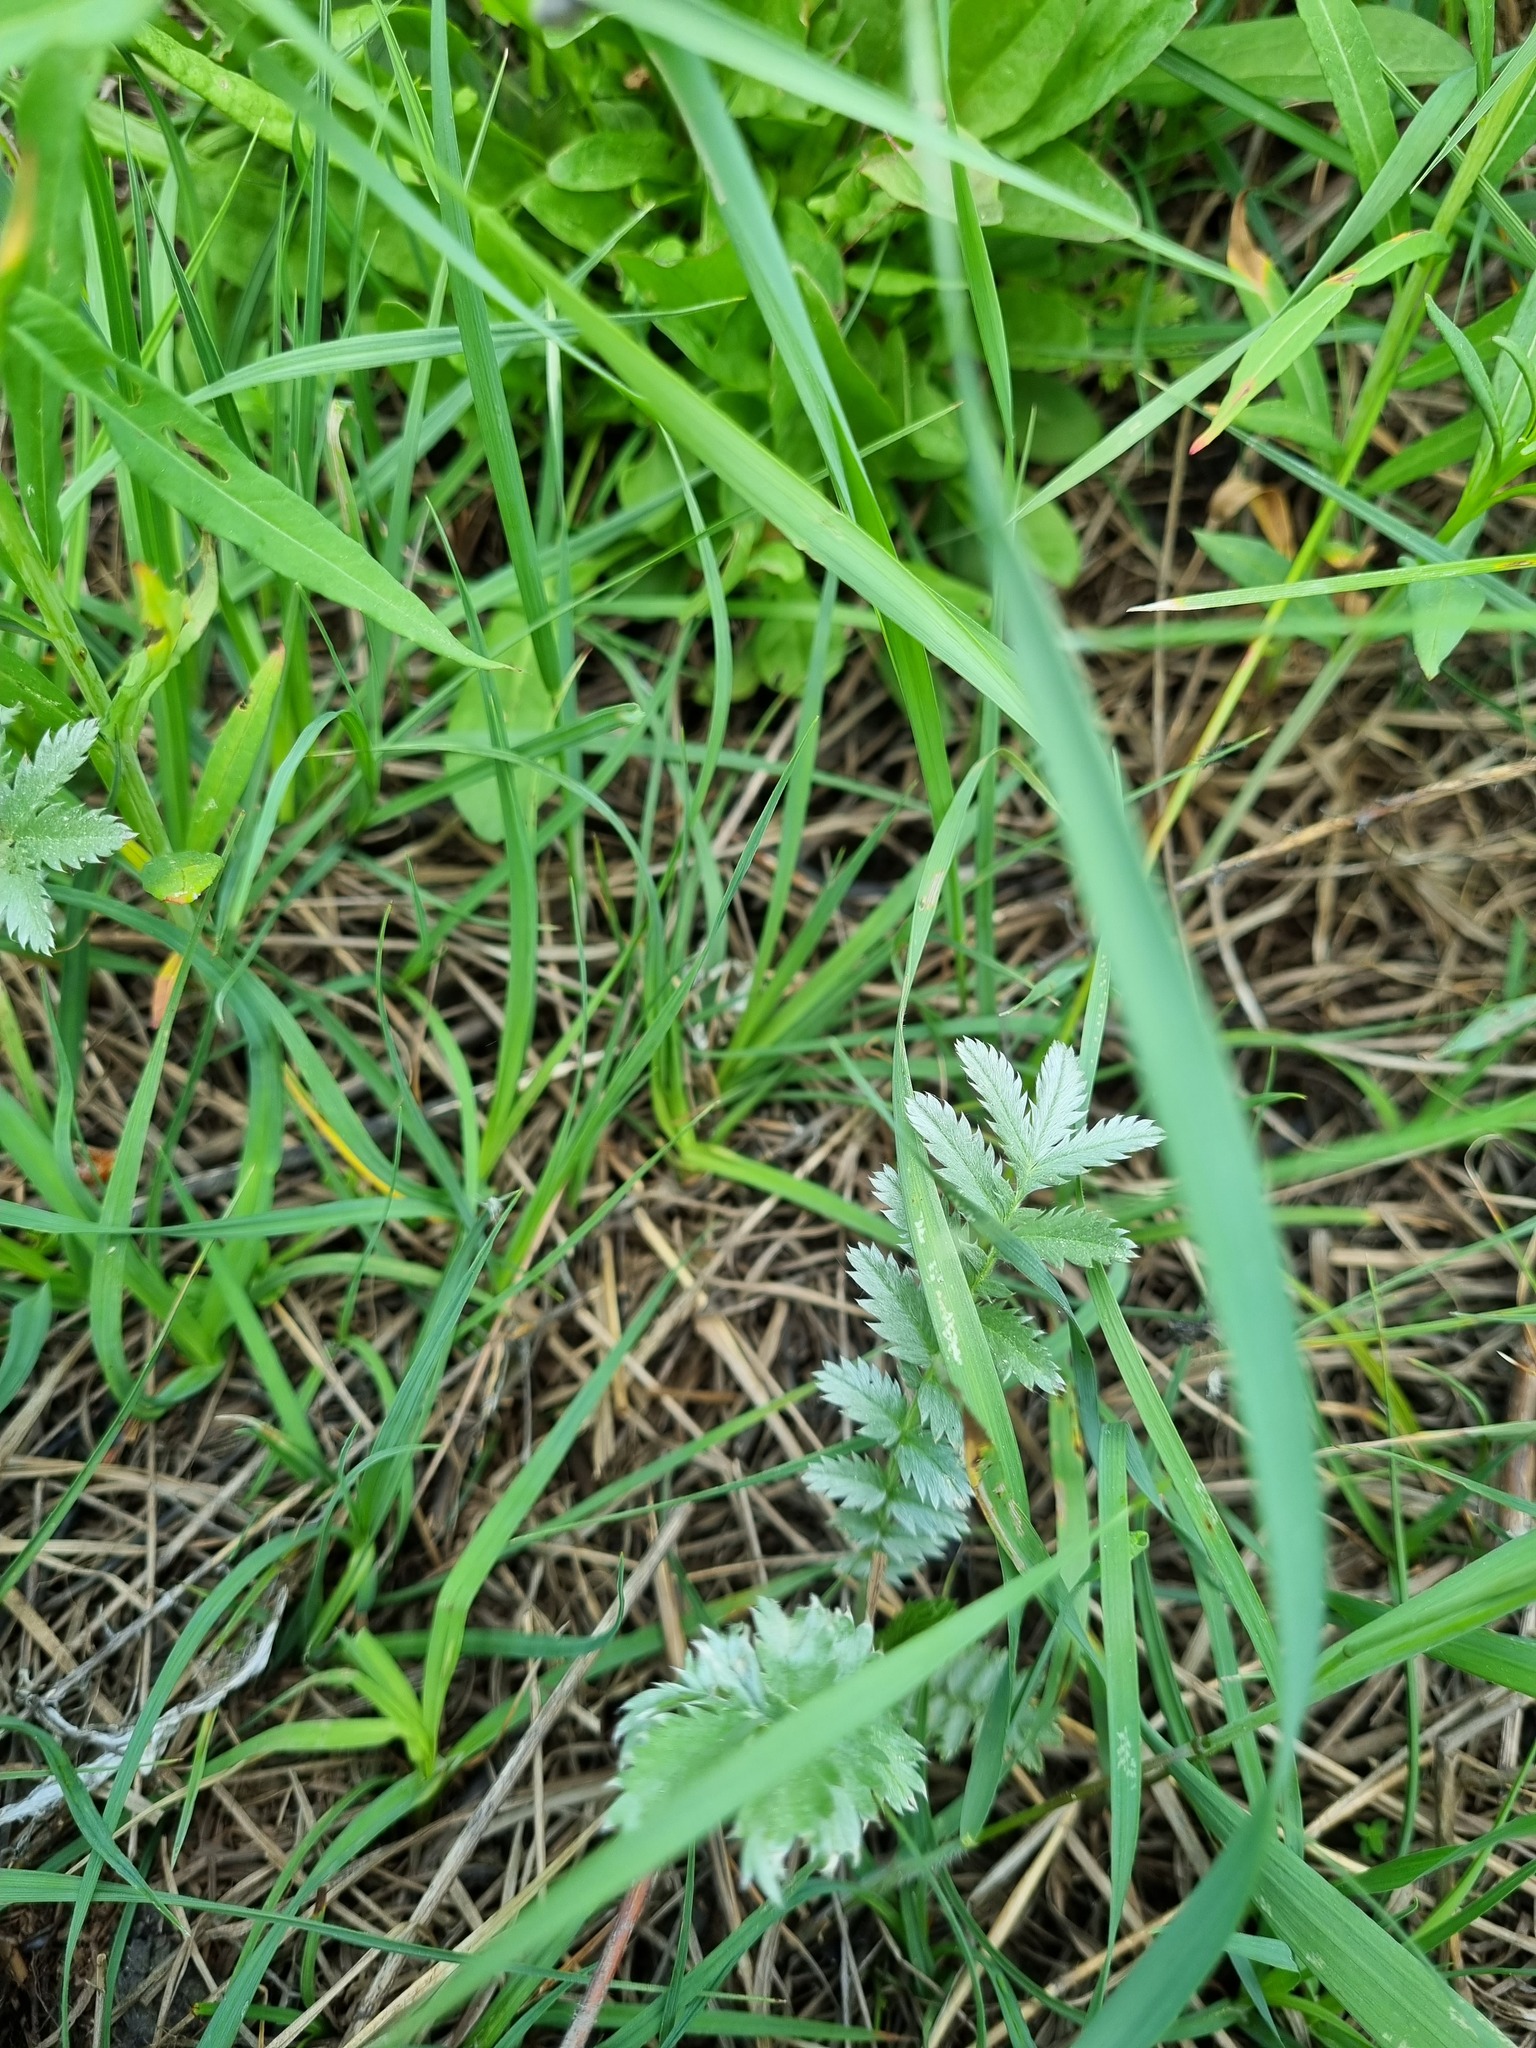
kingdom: Plantae
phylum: Tracheophyta
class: Magnoliopsida
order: Rosales
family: Rosaceae
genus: Argentina
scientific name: Argentina anserina
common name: Common silverweed
